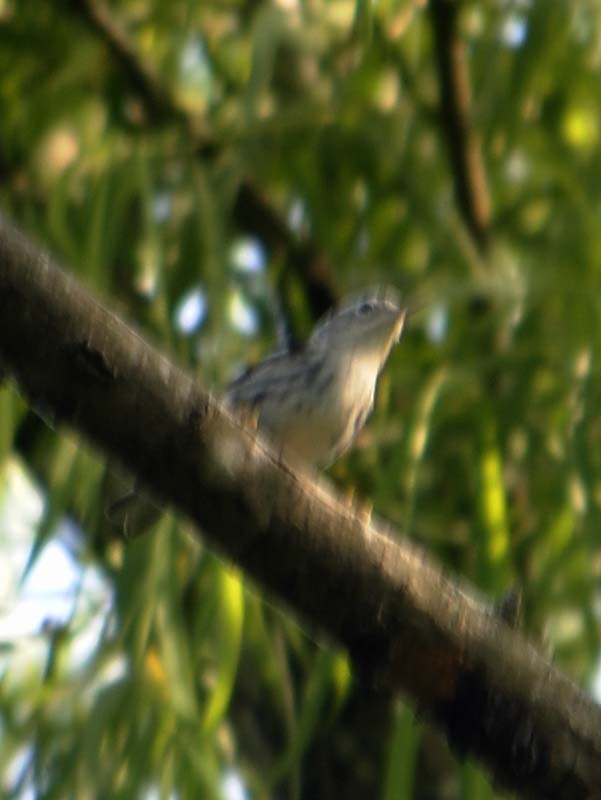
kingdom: Animalia
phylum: Chordata
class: Aves
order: Passeriformes
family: Parulidae
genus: Mniotilta
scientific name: Mniotilta varia
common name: Black-and-white warbler
